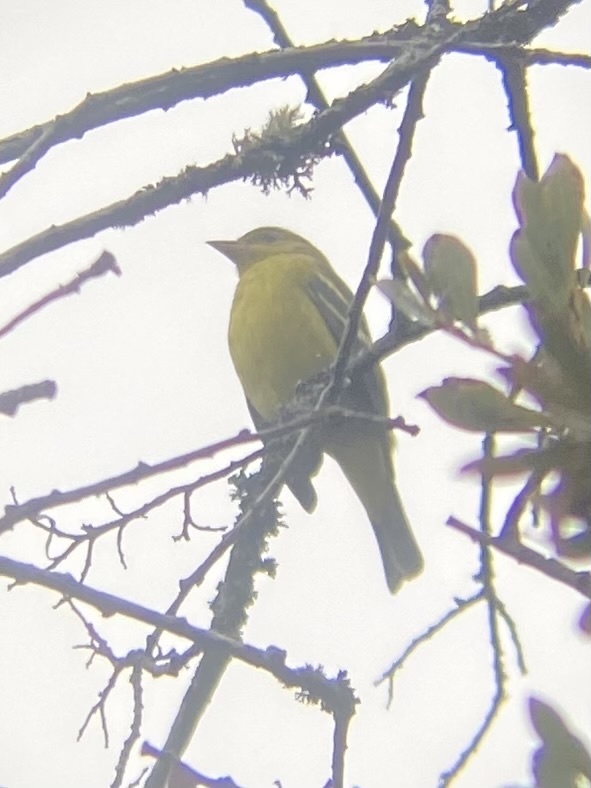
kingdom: Animalia
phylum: Chordata
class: Aves
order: Passeriformes
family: Fringillidae
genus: Spinus
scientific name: Spinus tristis
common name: American goldfinch
